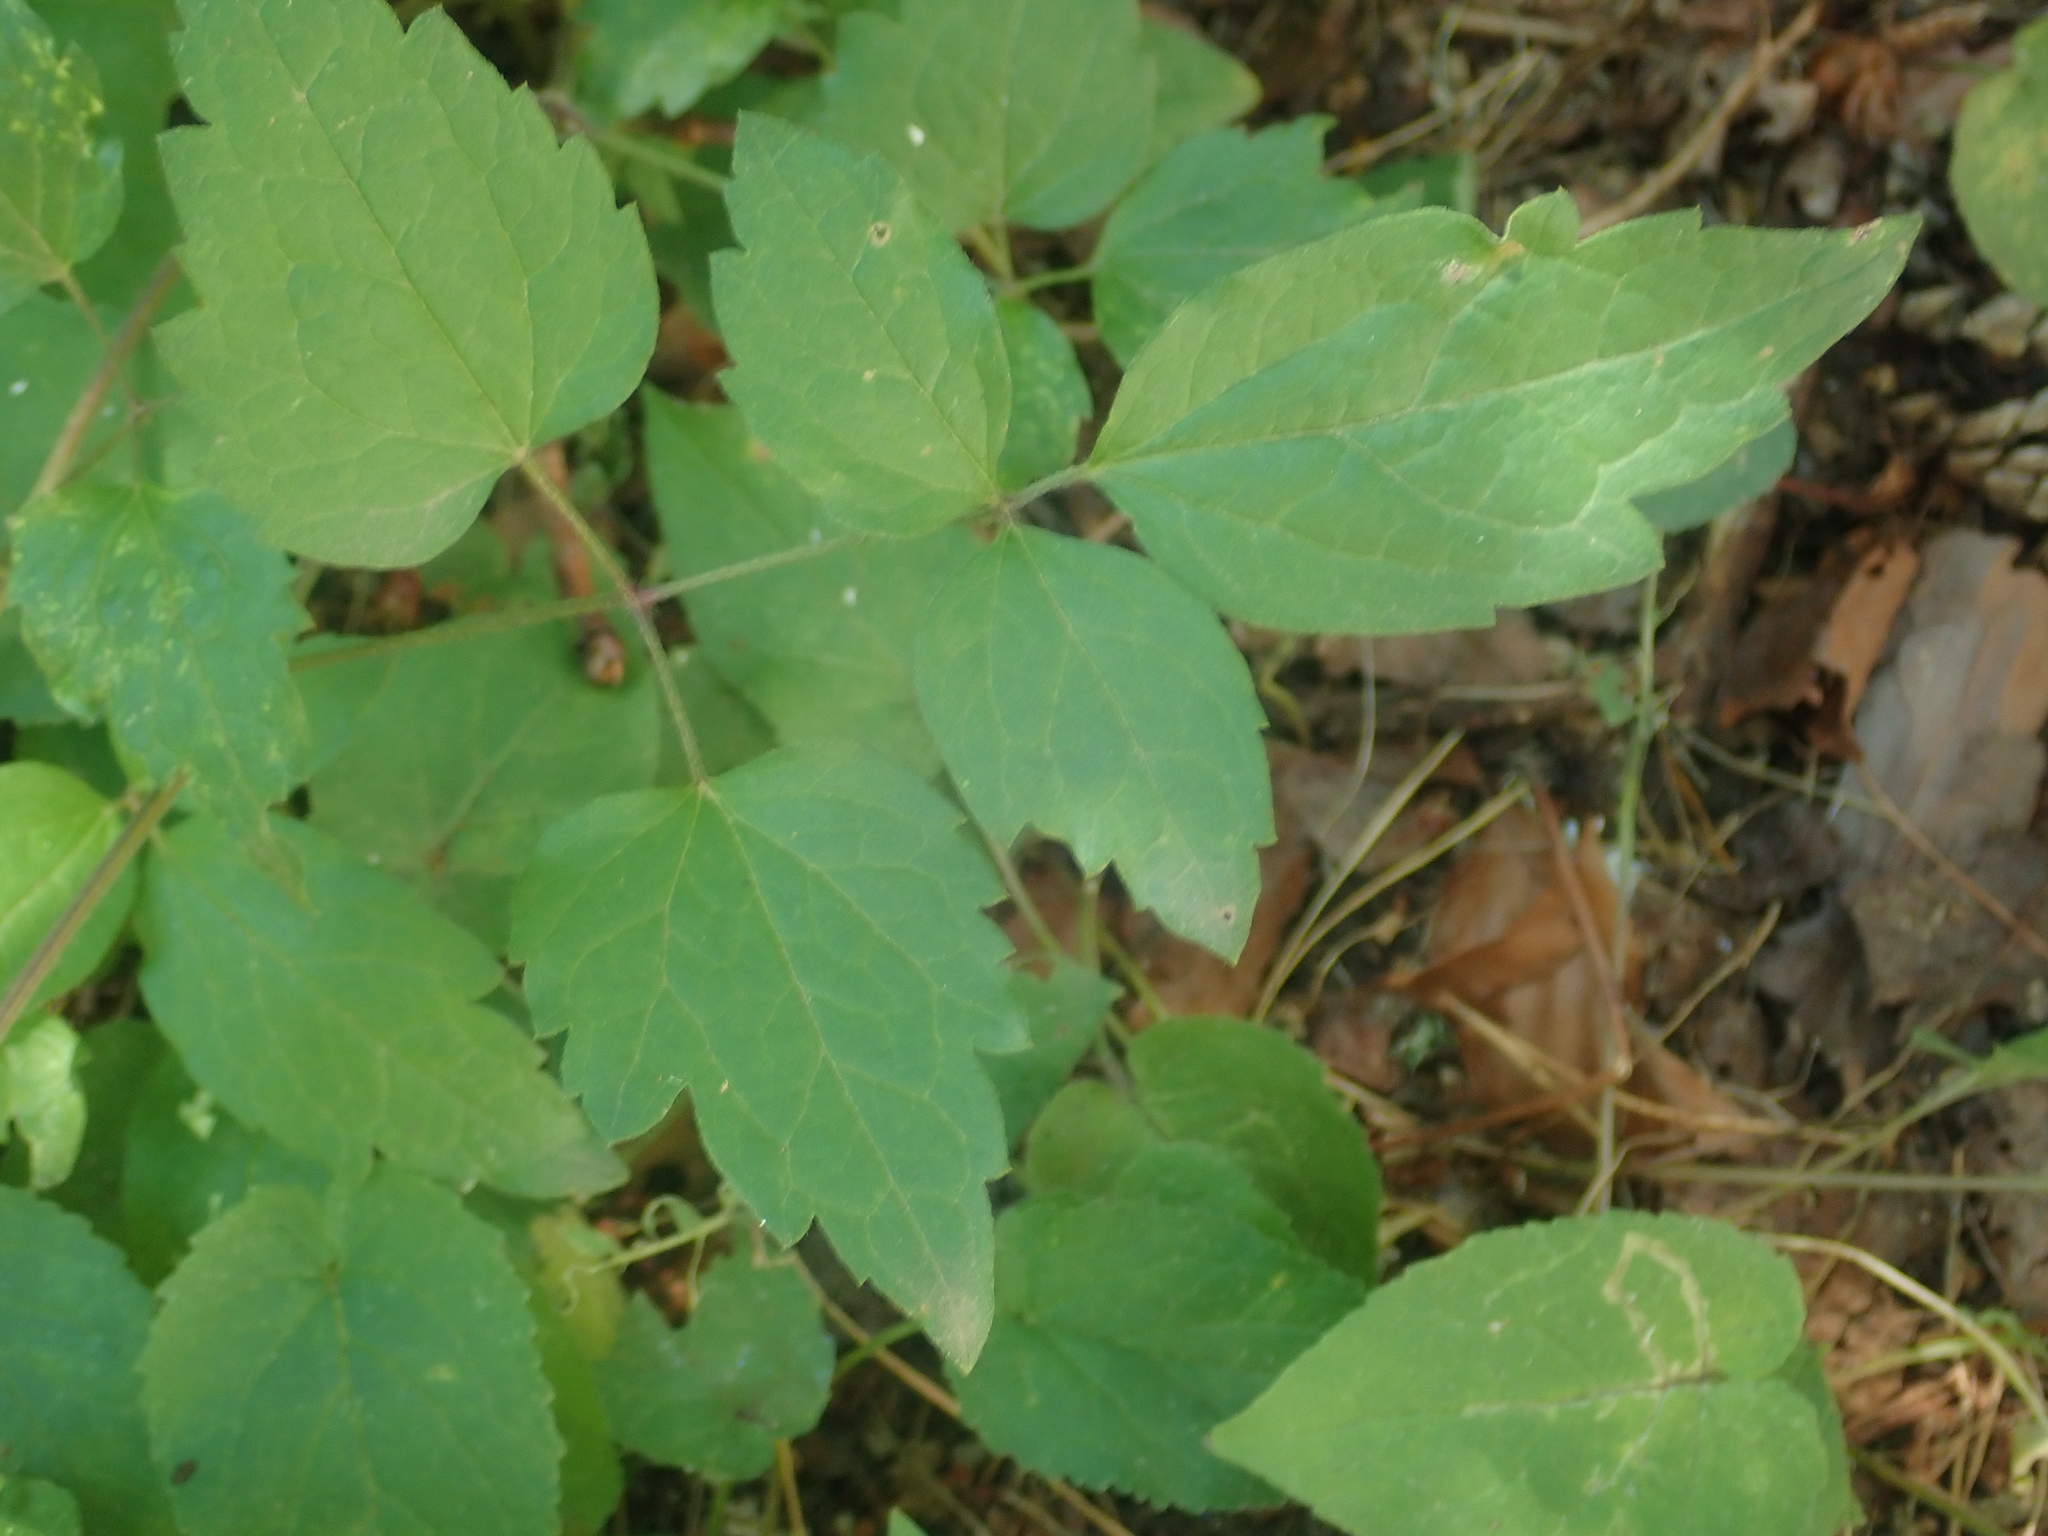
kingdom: Plantae
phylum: Tracheophyta
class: Magnoliopsida
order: Ranunculales
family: Ranunculaceae
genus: Clematis
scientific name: Clematis vitalba
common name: Evergreen clematis
